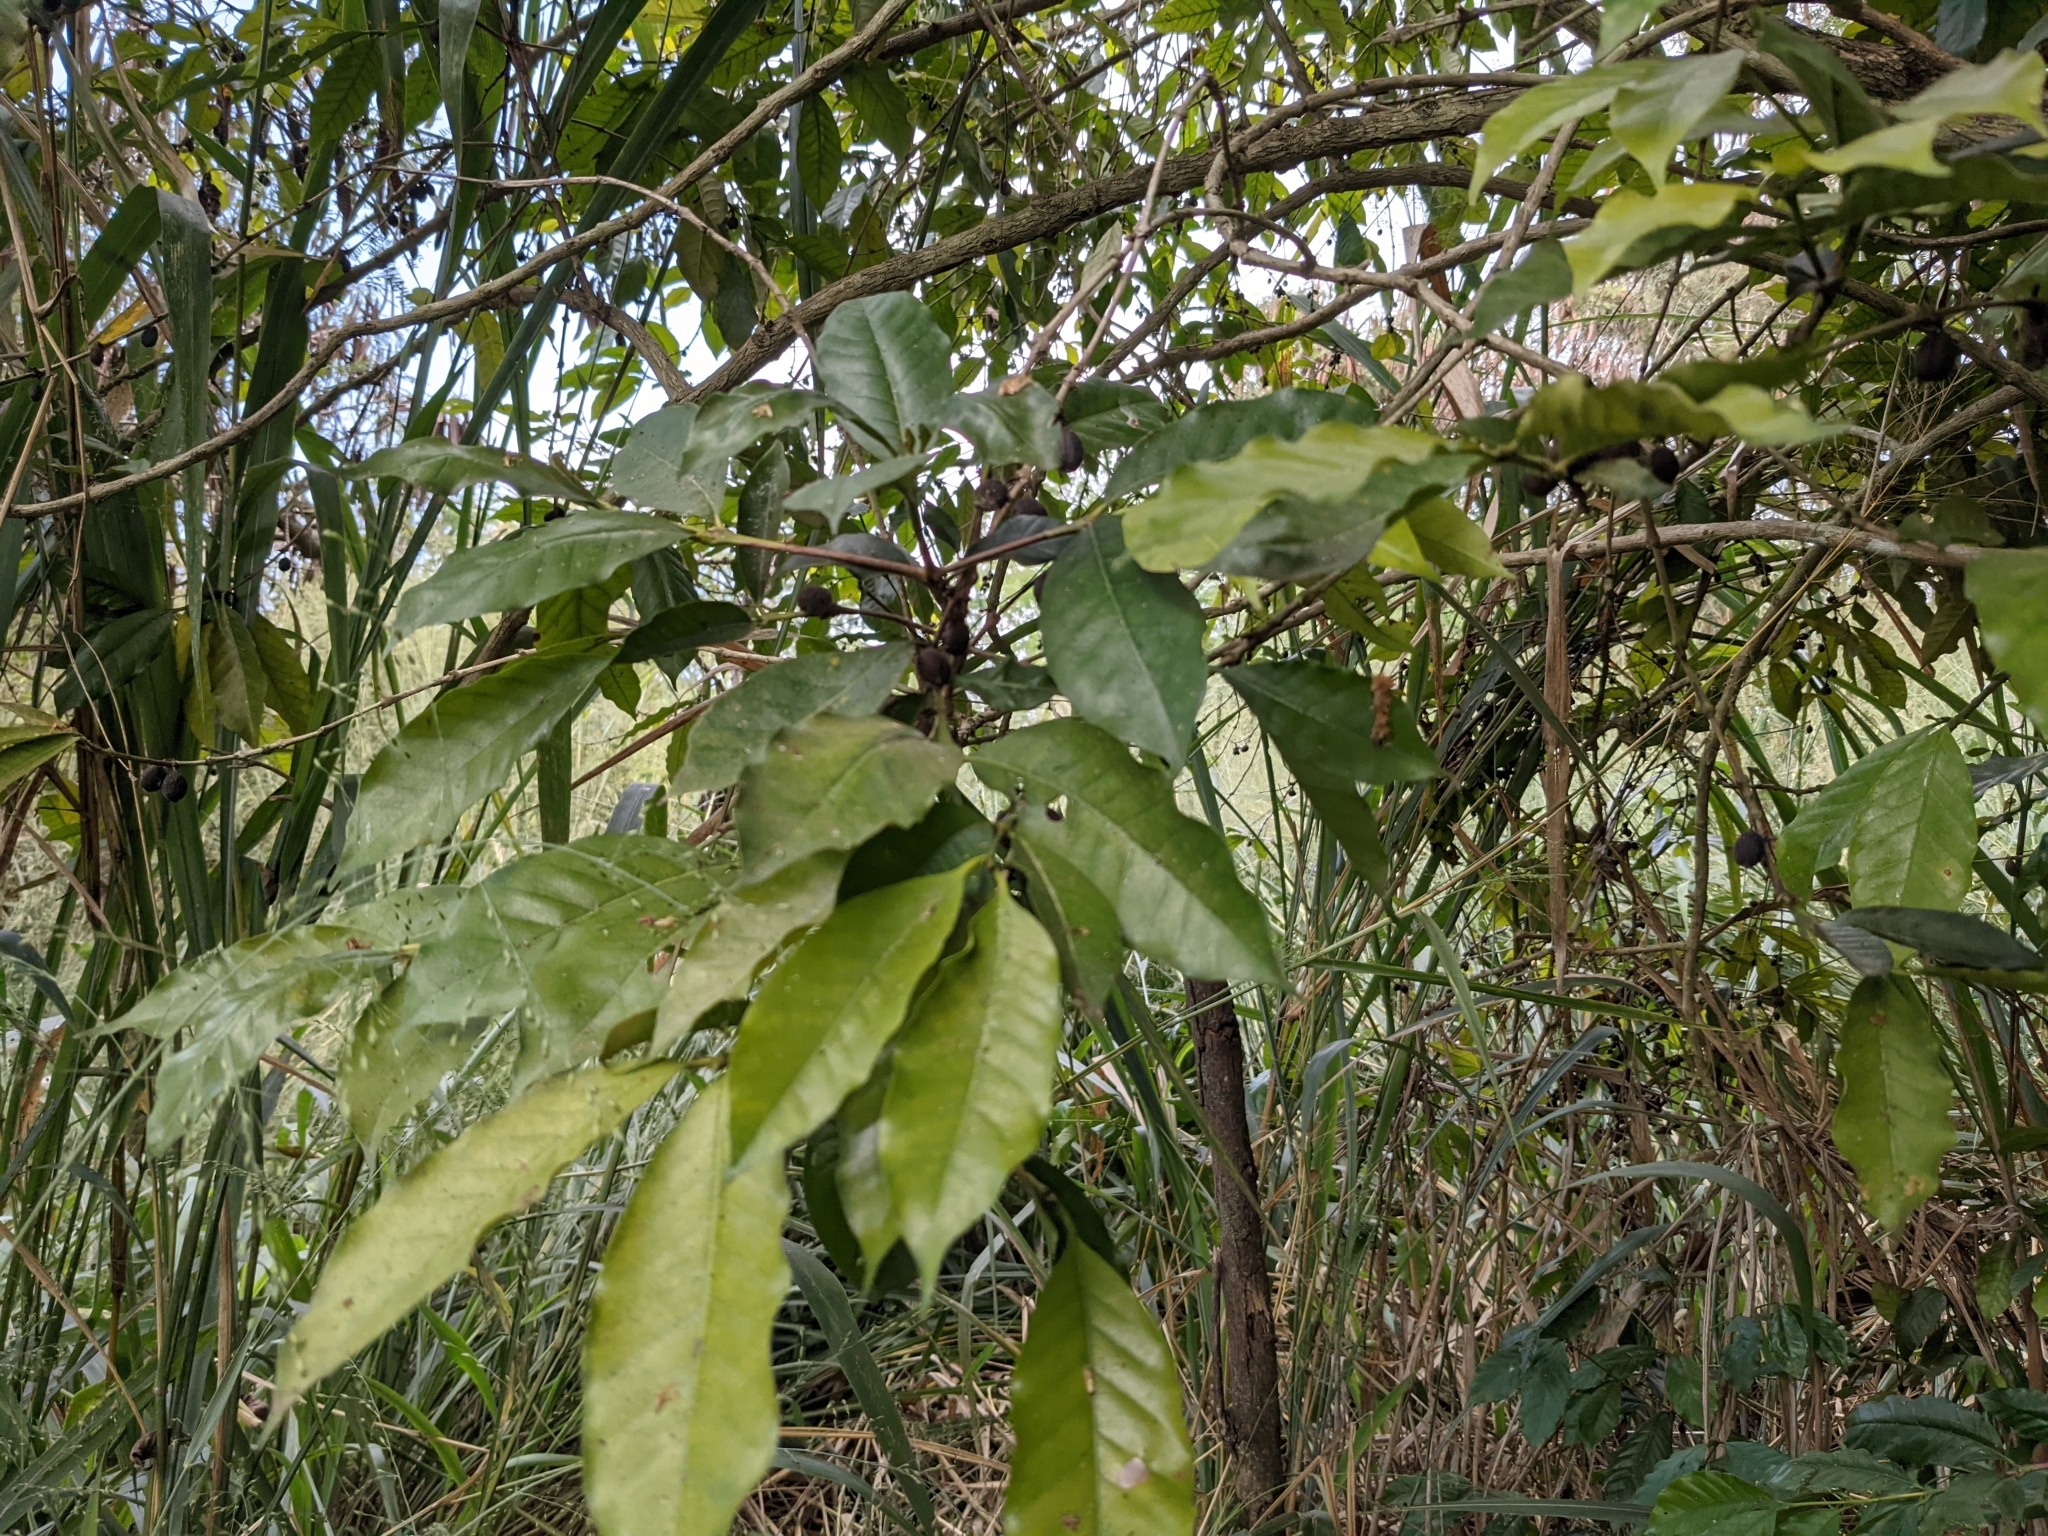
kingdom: Plantae
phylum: Tracheophyta
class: Magnoliopsida
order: Gentianales
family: Rubiaceae
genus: Coffea
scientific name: Coffea arabica
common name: Coffee
